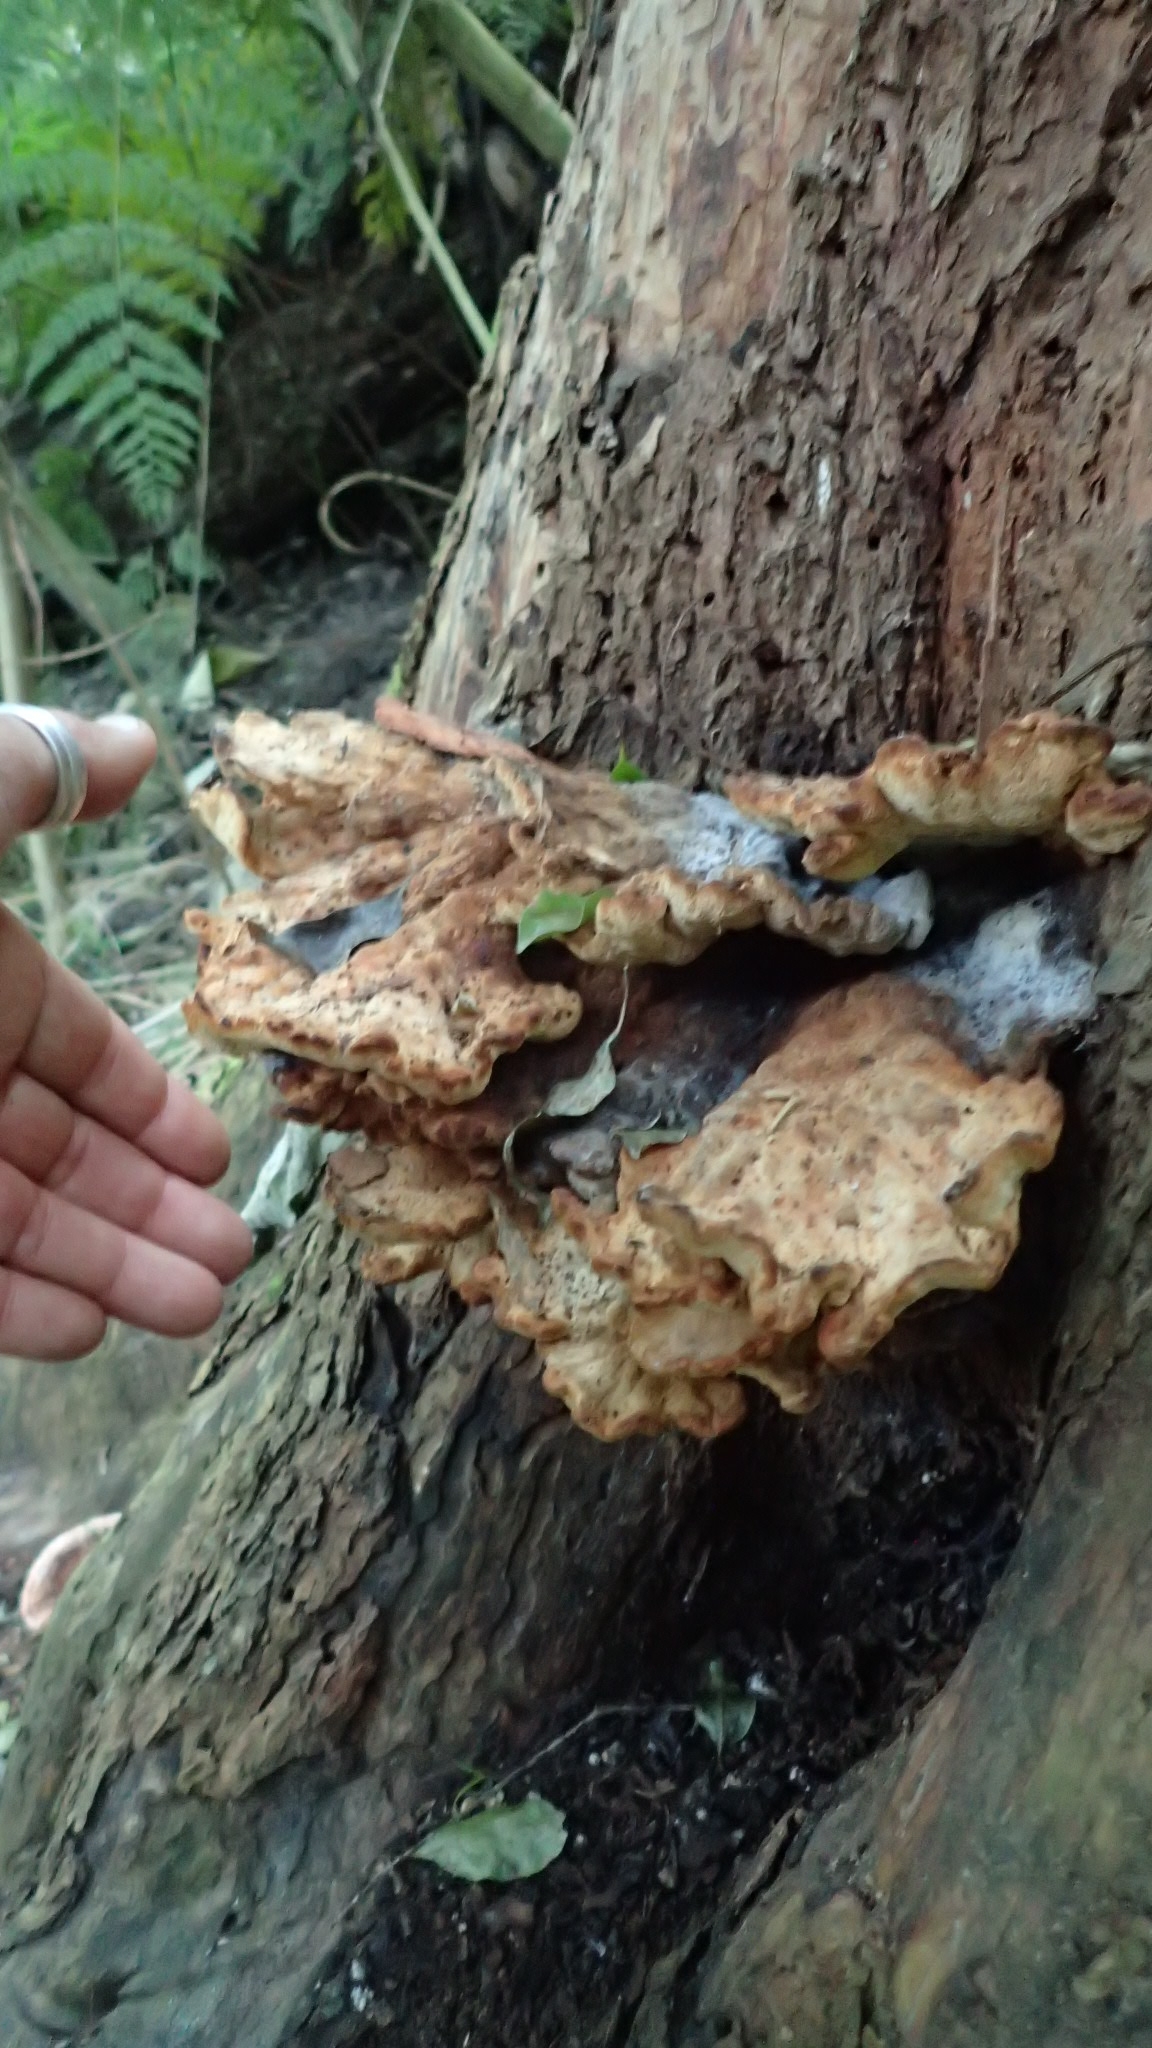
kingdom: Fungi
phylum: Basidiomycota
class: Agaricomycetes
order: Polyporales
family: Laetiporaceae
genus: Laetiporus
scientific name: Laetiporus sulphureus
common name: Chicken of the woods
